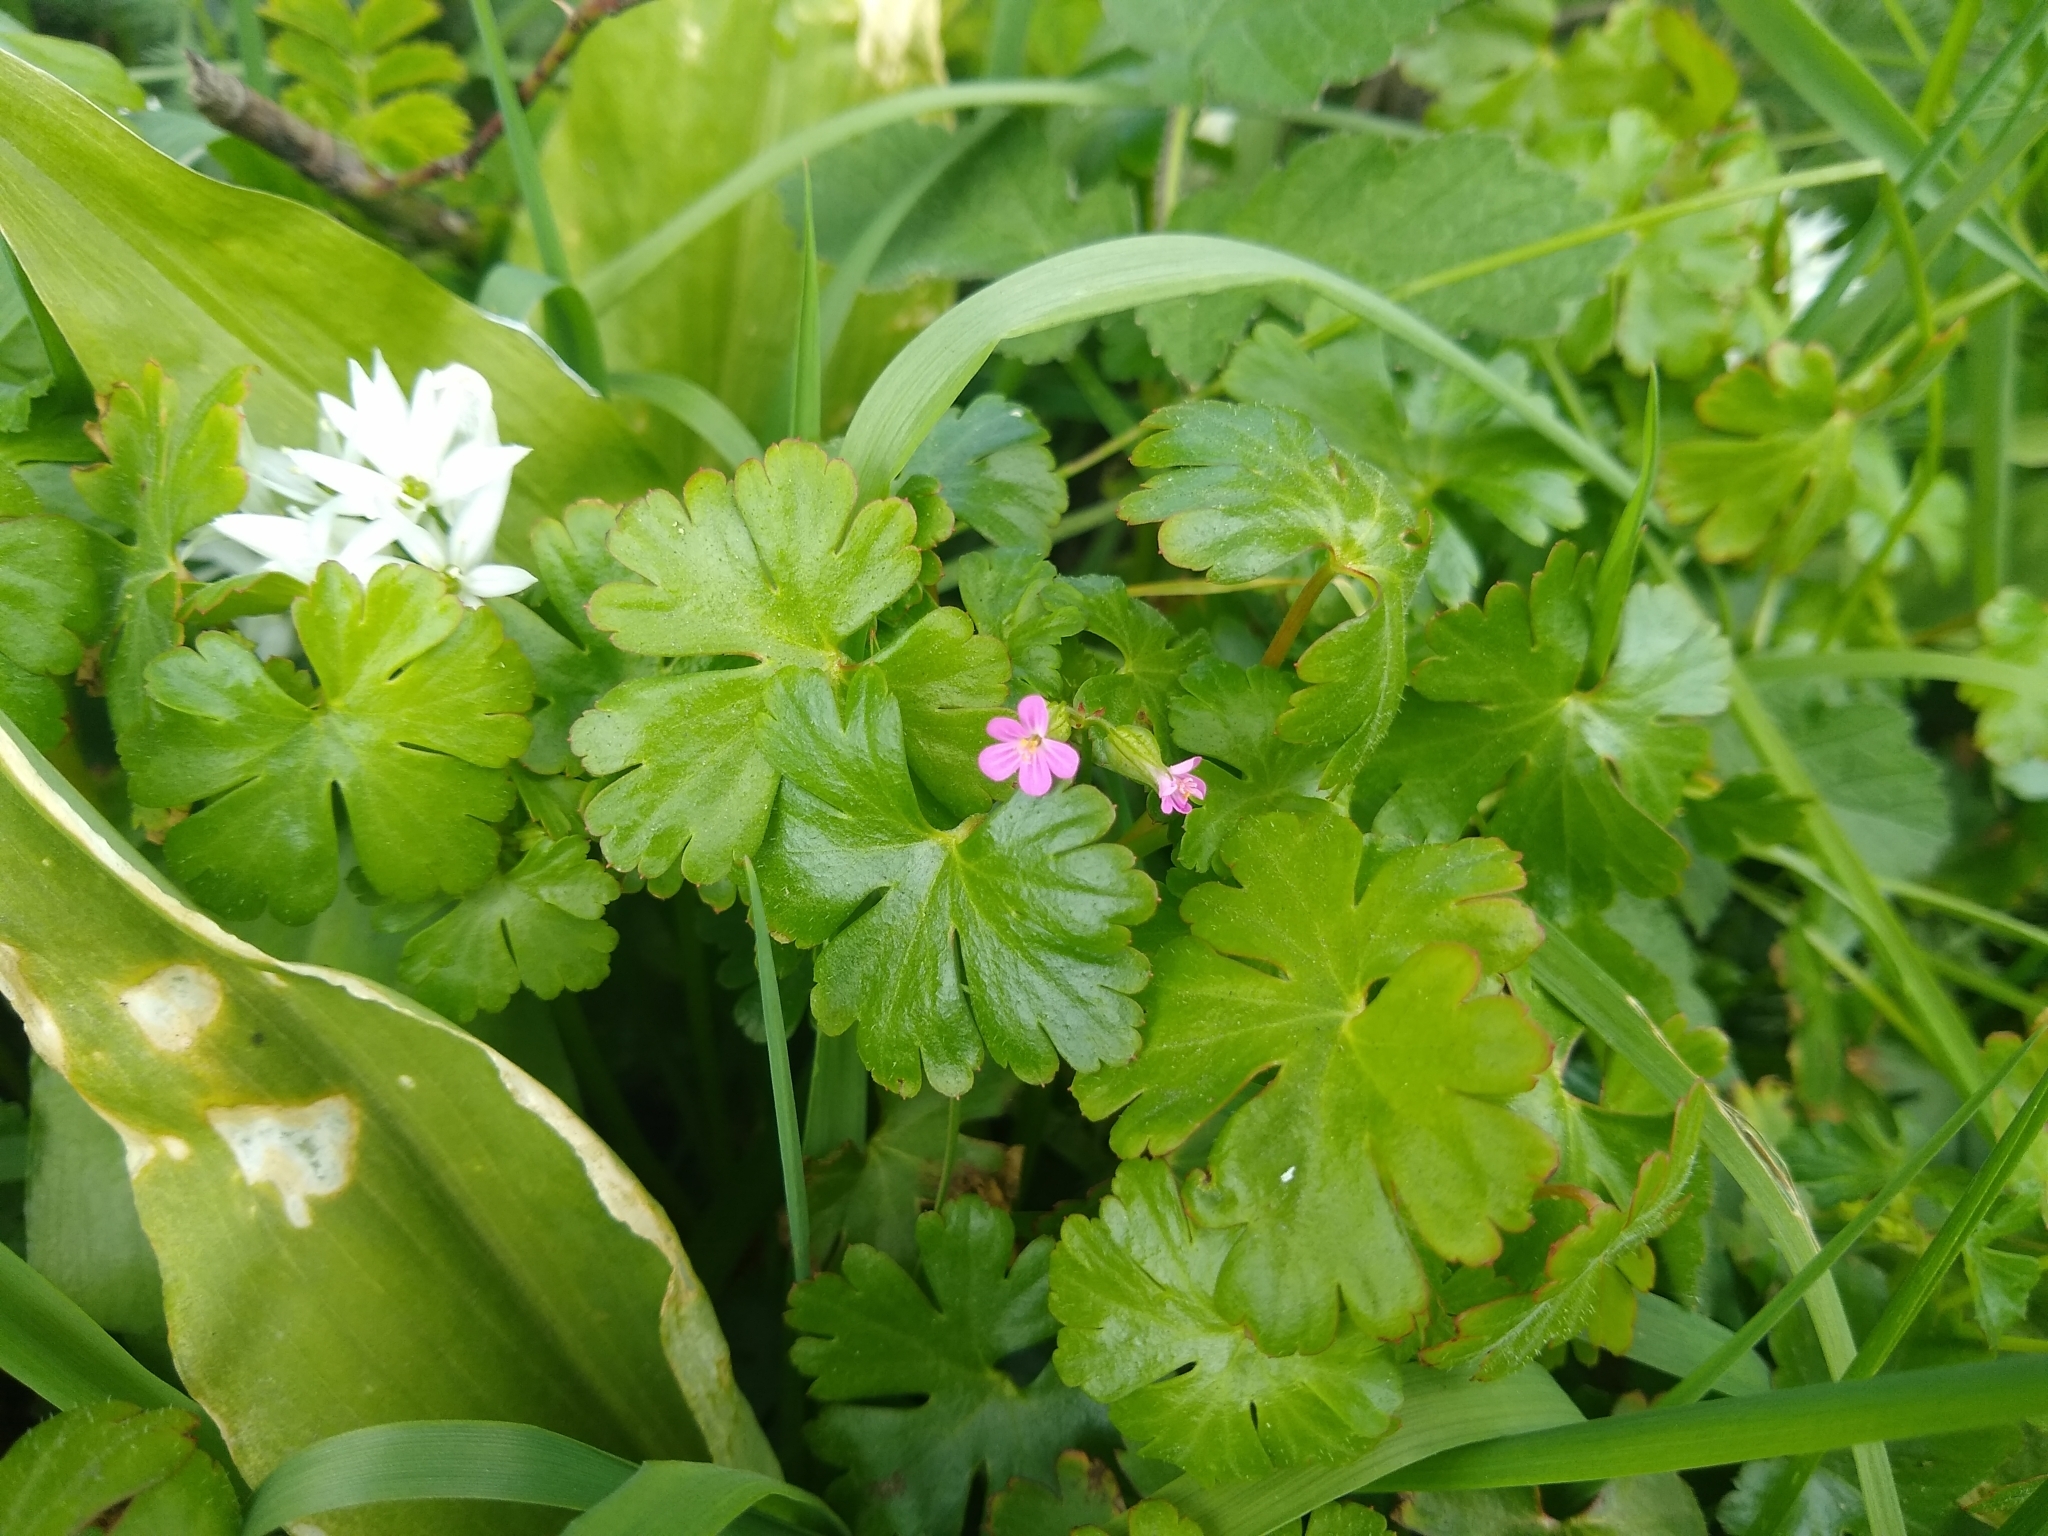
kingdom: Plantae
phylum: Tracheophyta
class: Magnoliopsida
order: Geraniales
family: Geraniaceae
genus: Geranium
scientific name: Geranium lucidum
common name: Shining crane's-bill
